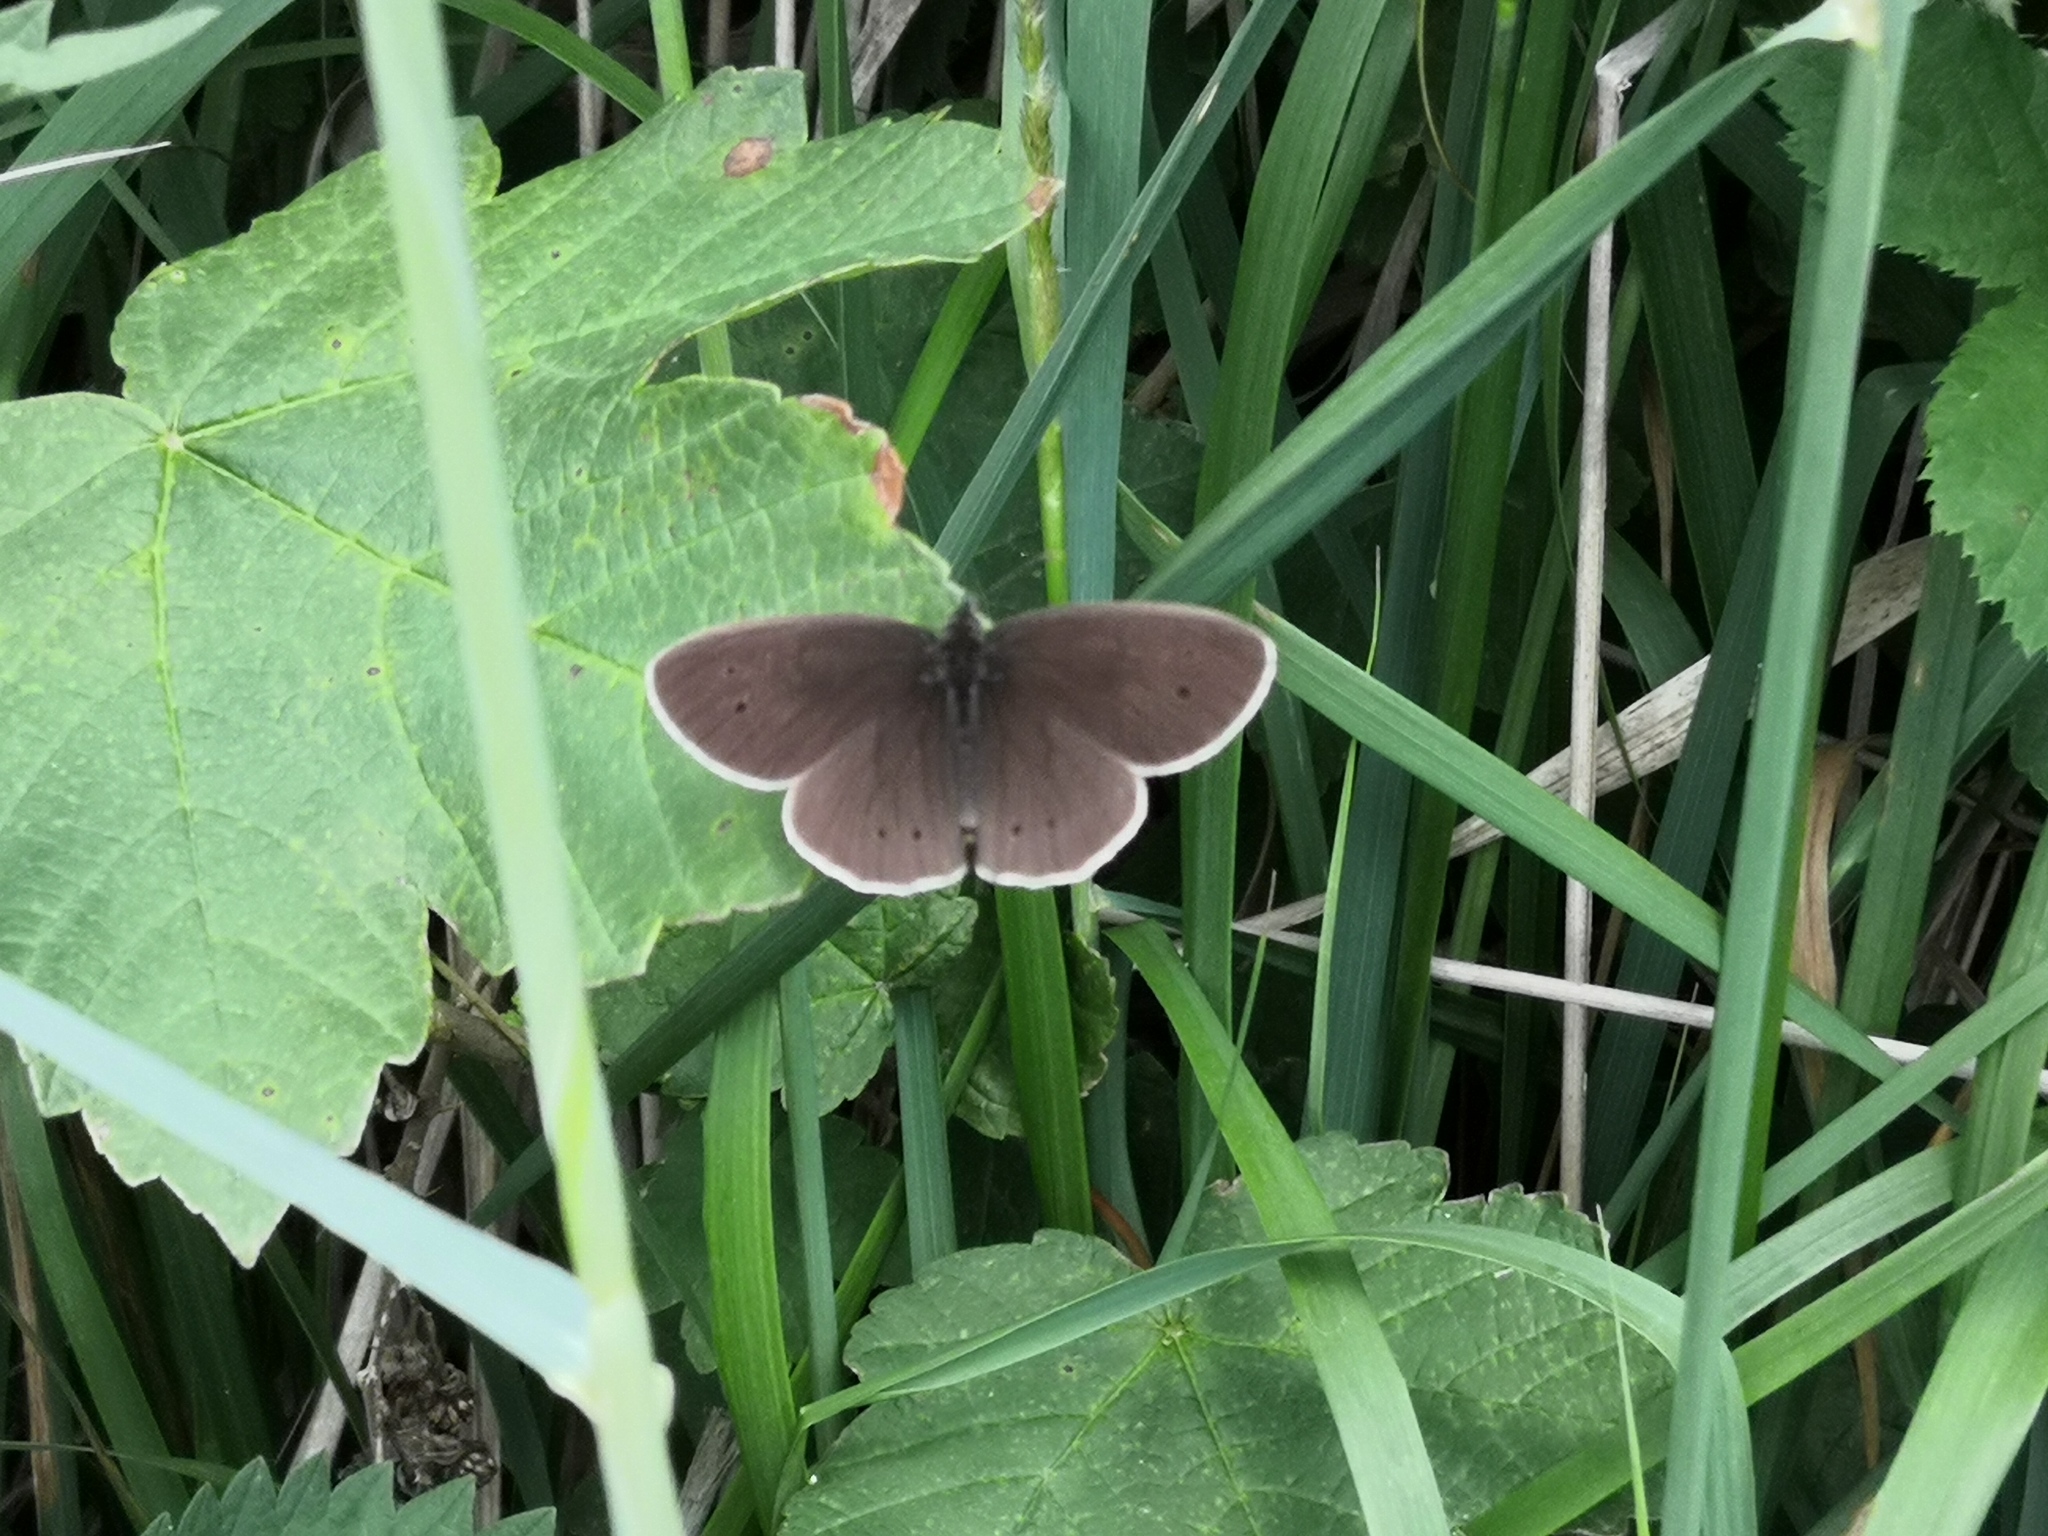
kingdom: Animalia
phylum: Arthropoda
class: Insecta
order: Lepidoptera
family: Nymphalidae
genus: Aphantopus
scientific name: Aphantopus hyperantus
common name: Ringlet
